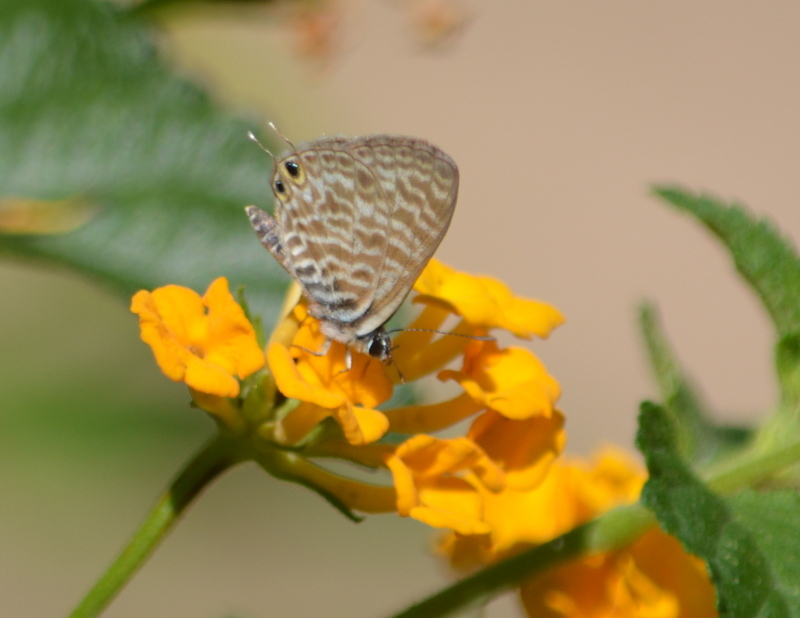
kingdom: Animalia
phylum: Arthropoda
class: Insecta
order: Lepidoptera
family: Lycaenidae
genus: Leptotes
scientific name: Leptotes pirithous
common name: Lang's short-tailed blue
